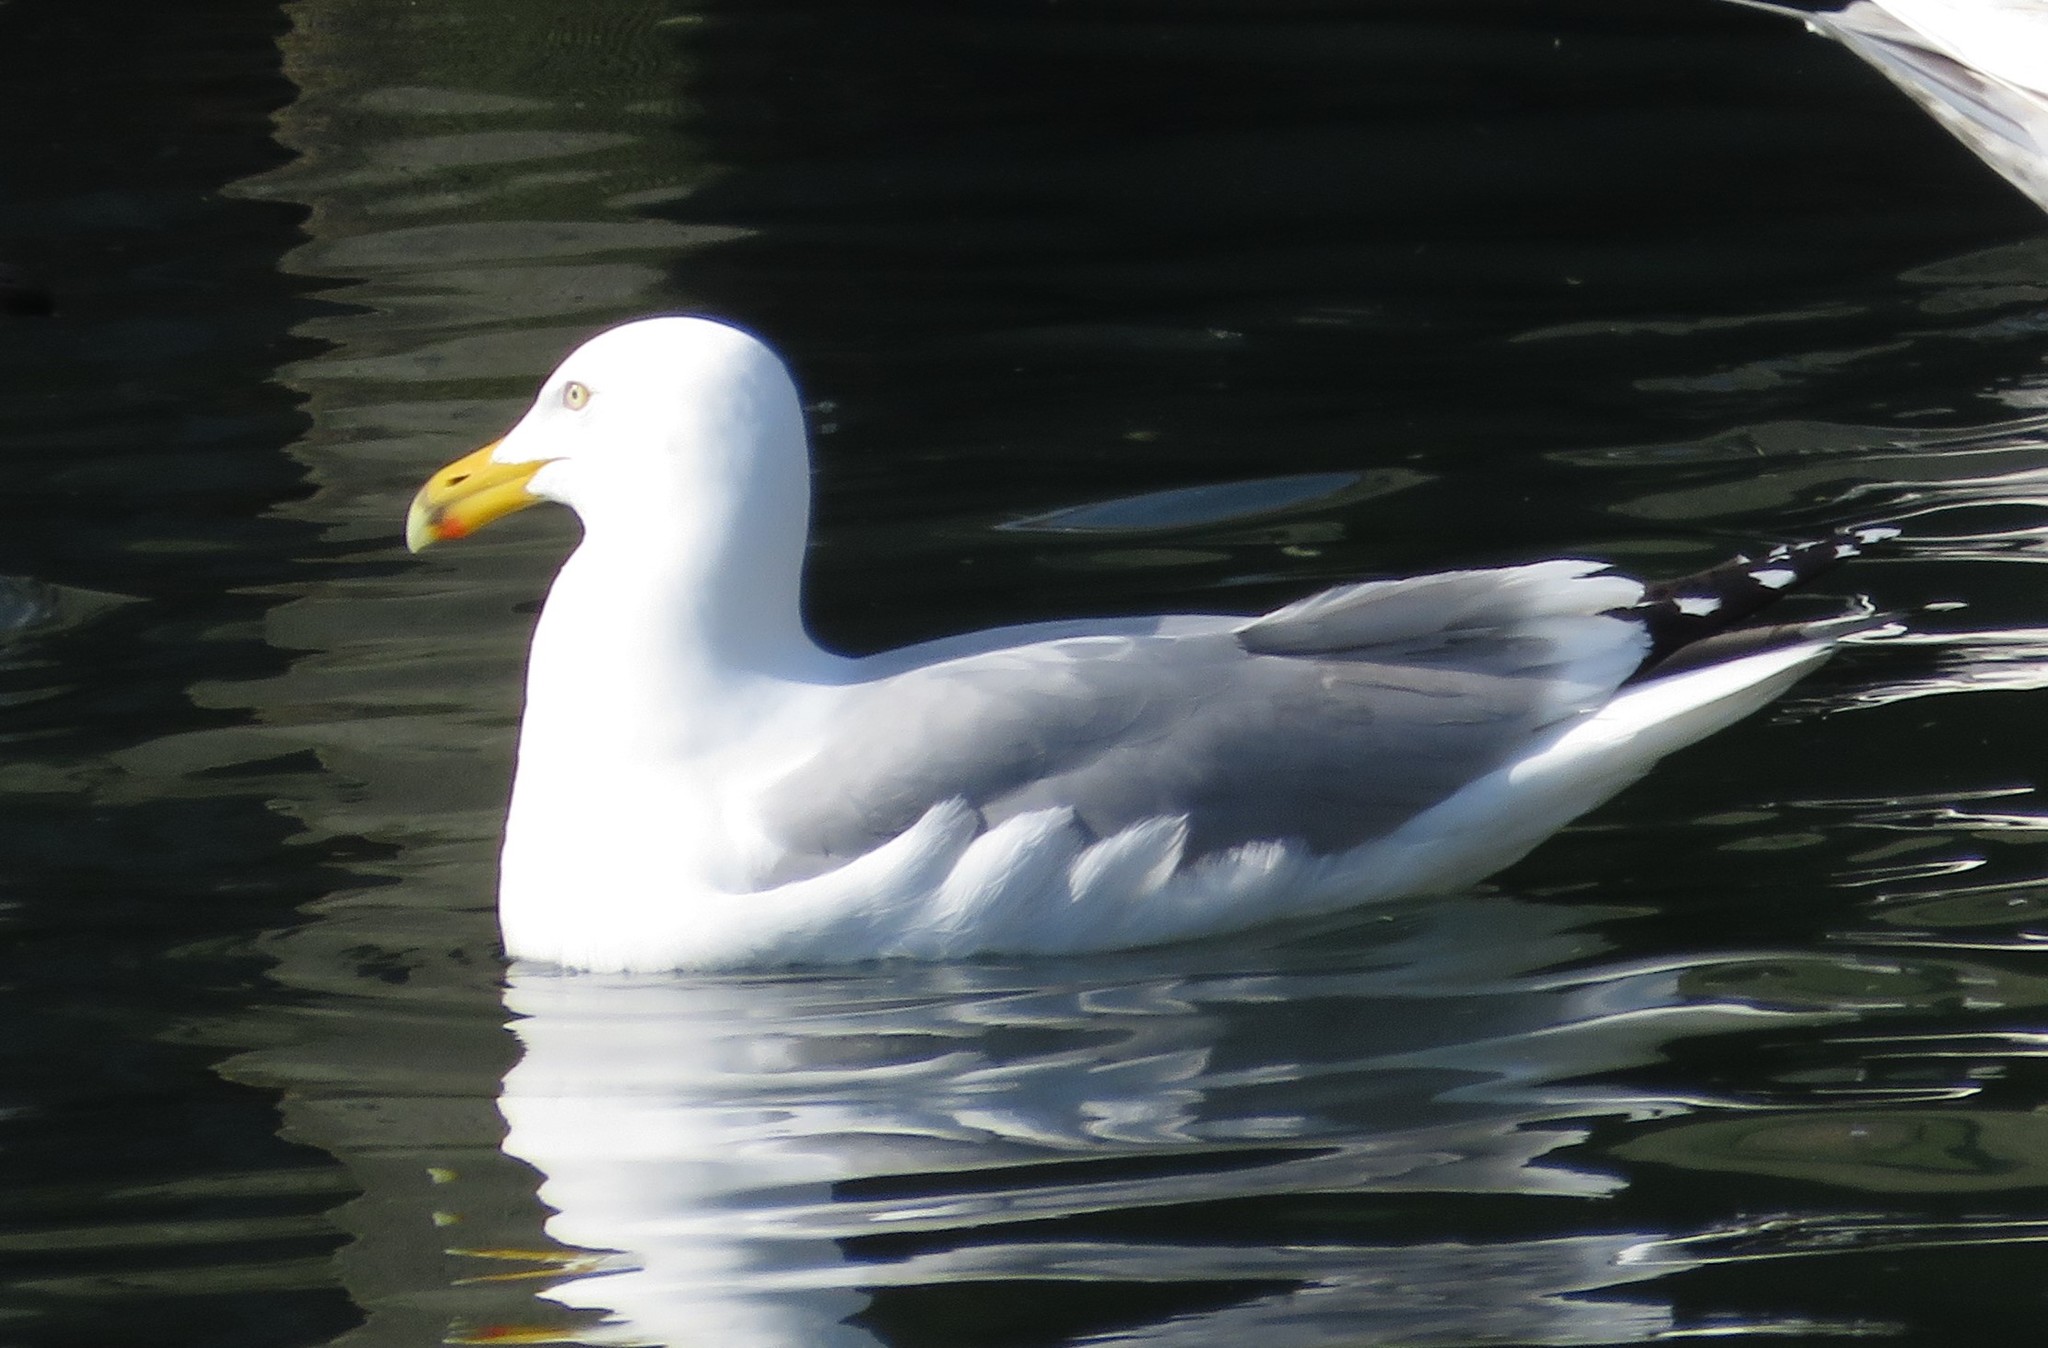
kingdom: Animalia
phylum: Chordata
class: Aves
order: Charadriiformes
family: Laridae
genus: Larus
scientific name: Larus argentatus
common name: Herring gull
